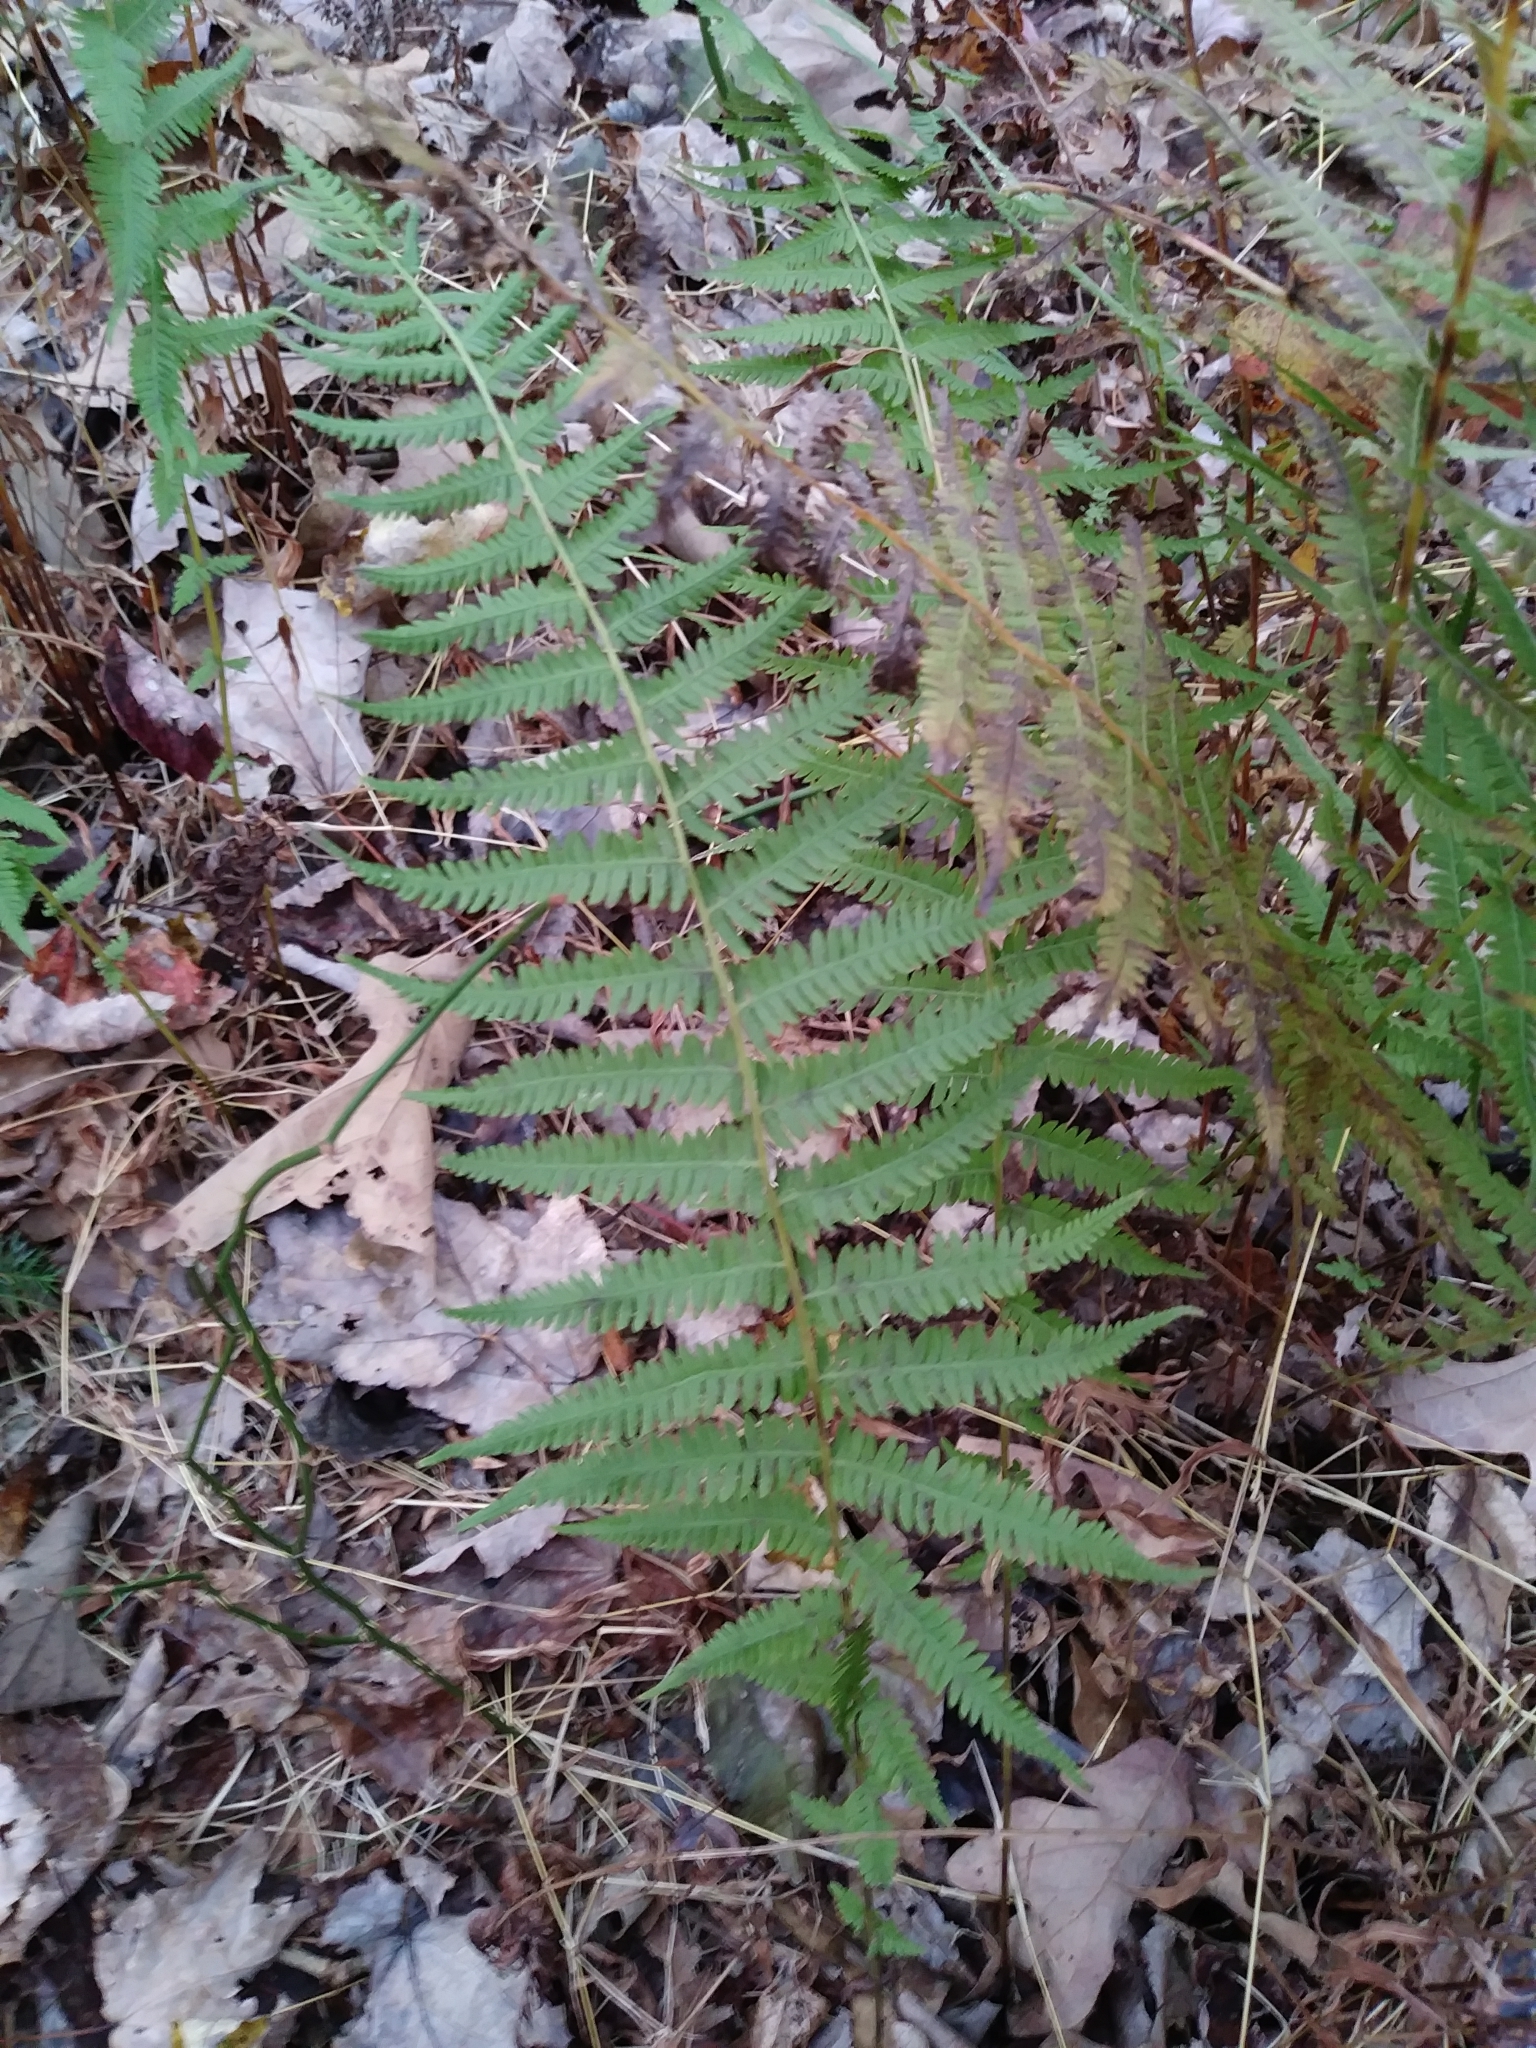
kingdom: Plantae
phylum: Tracheophyta
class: Polypodiopsida
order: Polypodiales
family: Thelypteridaceae
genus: Amauropelta
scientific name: Amauropelta noveboracensis
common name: New york fern
